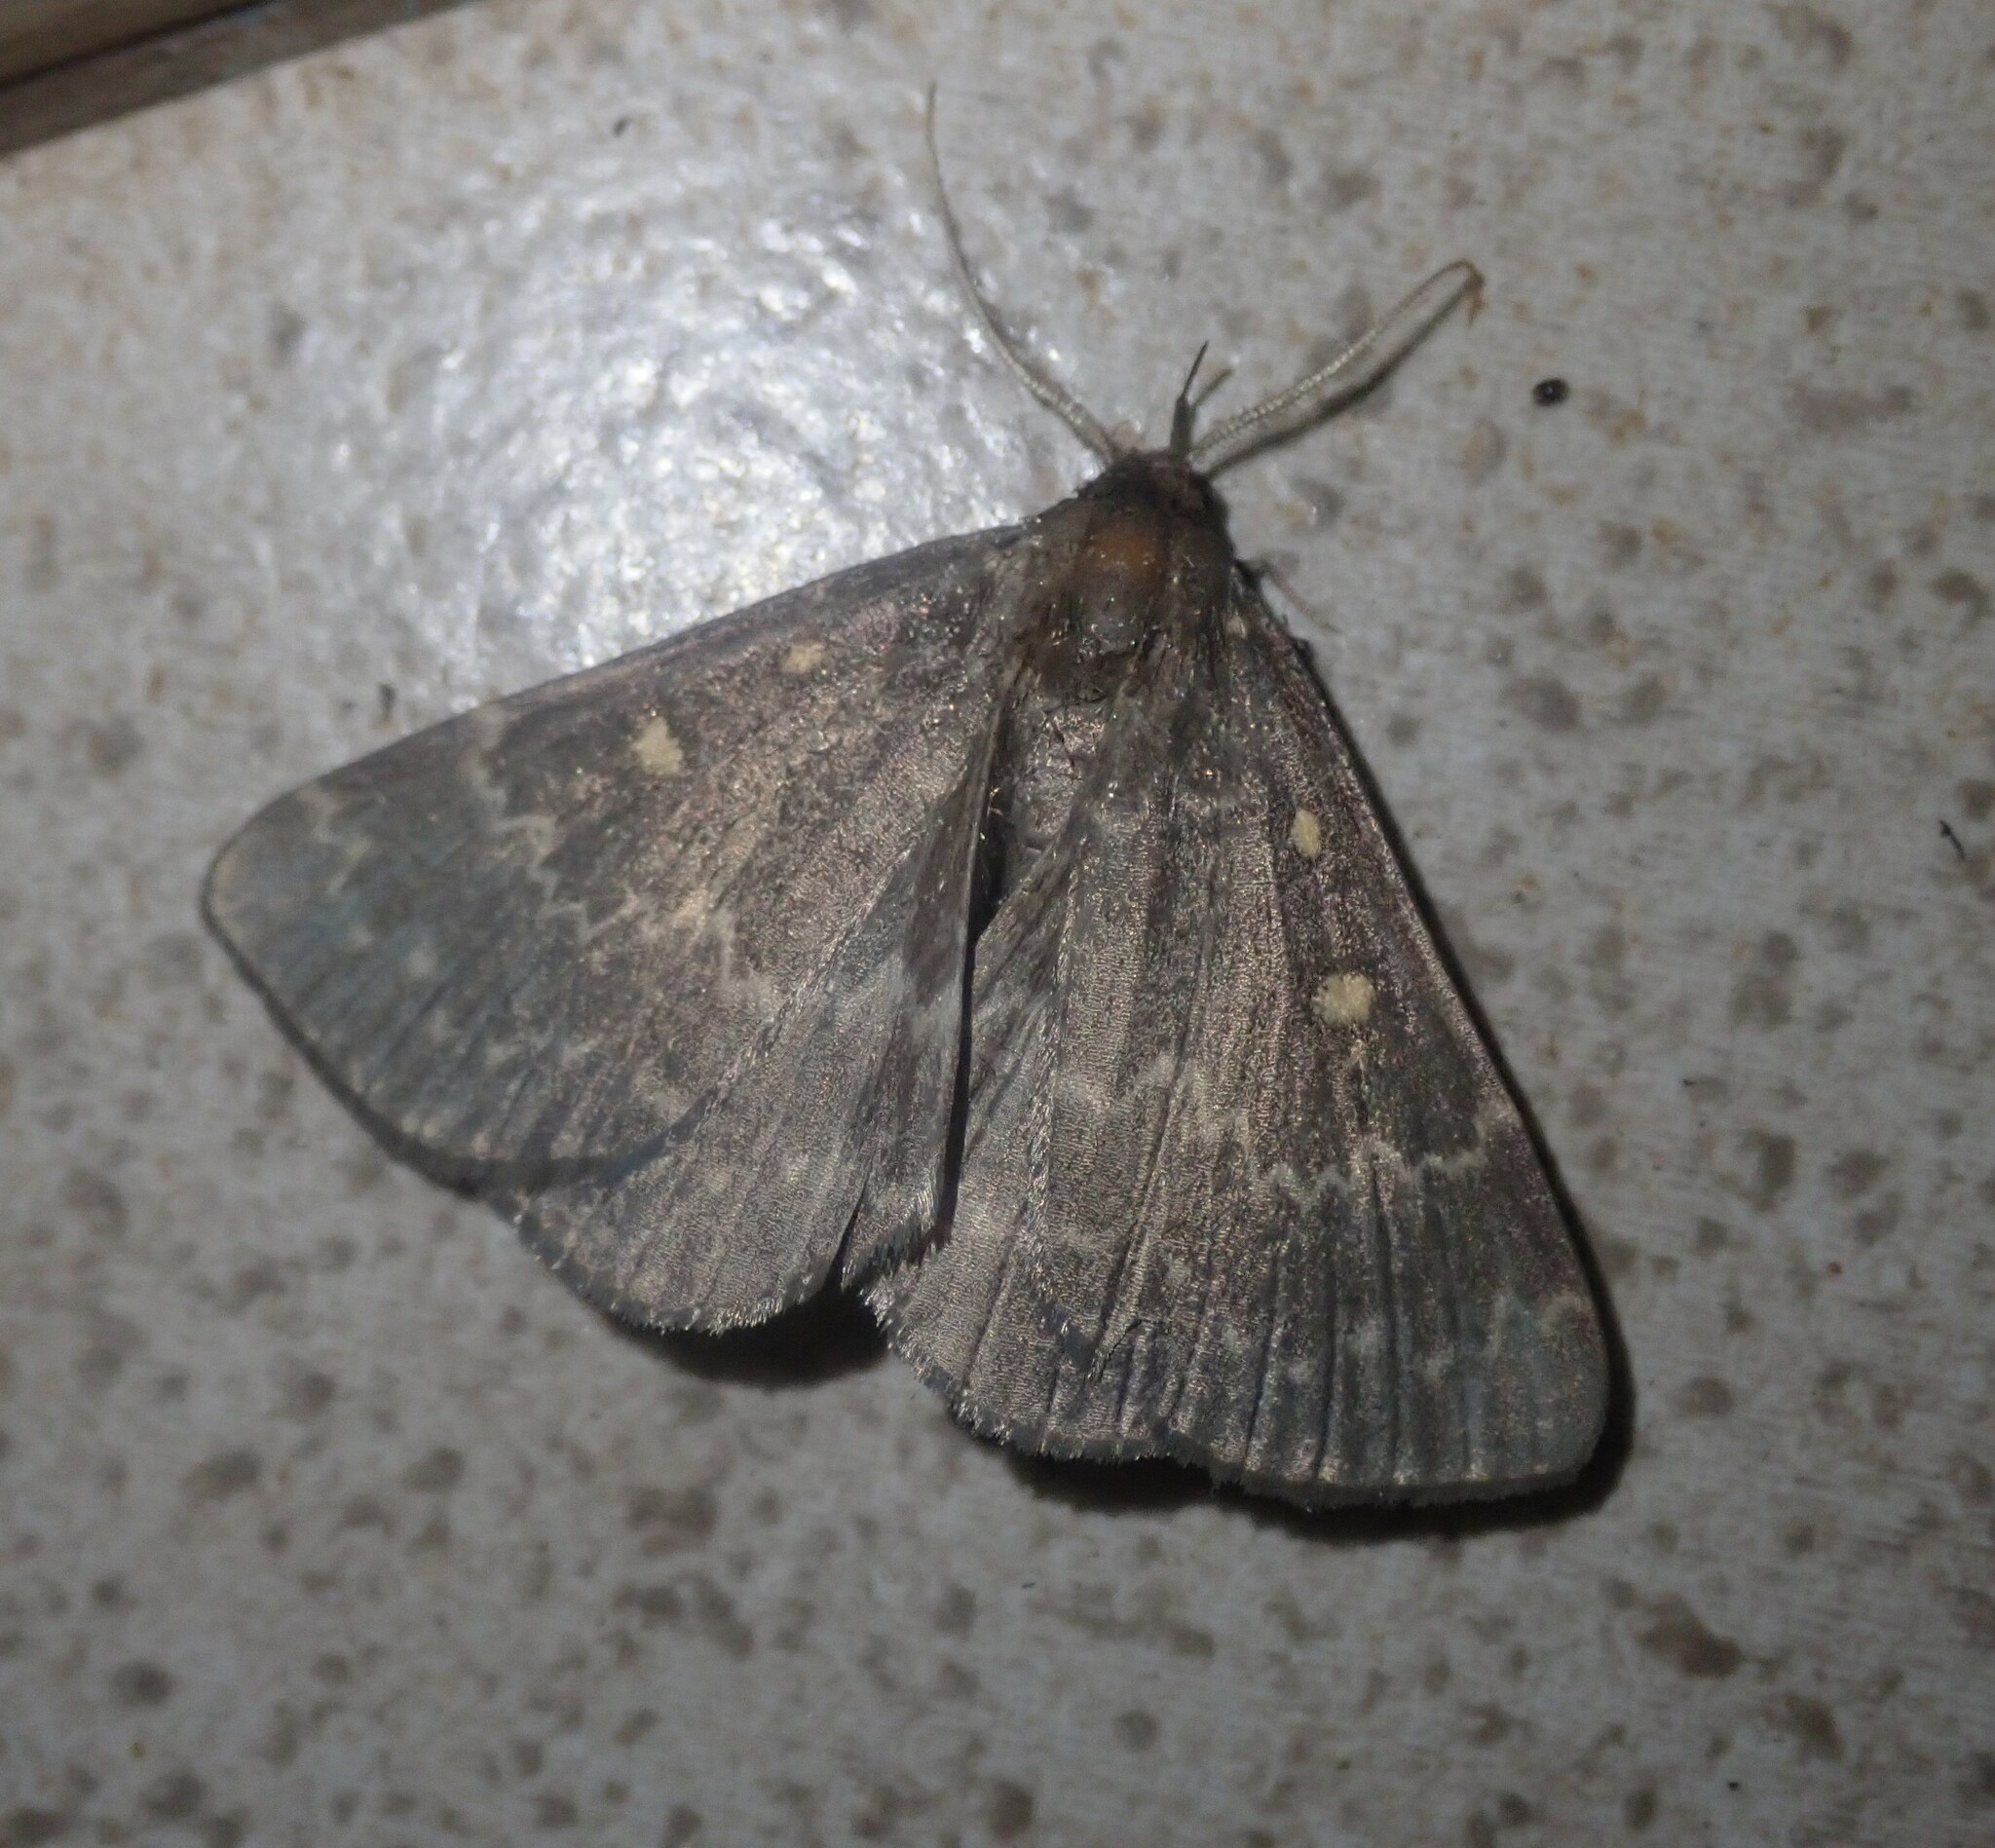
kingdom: Animalia
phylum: Arthropoda
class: Insecta
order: Lepidoptera
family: Erebidae
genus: Calesia
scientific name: Calesia xanthognatha
